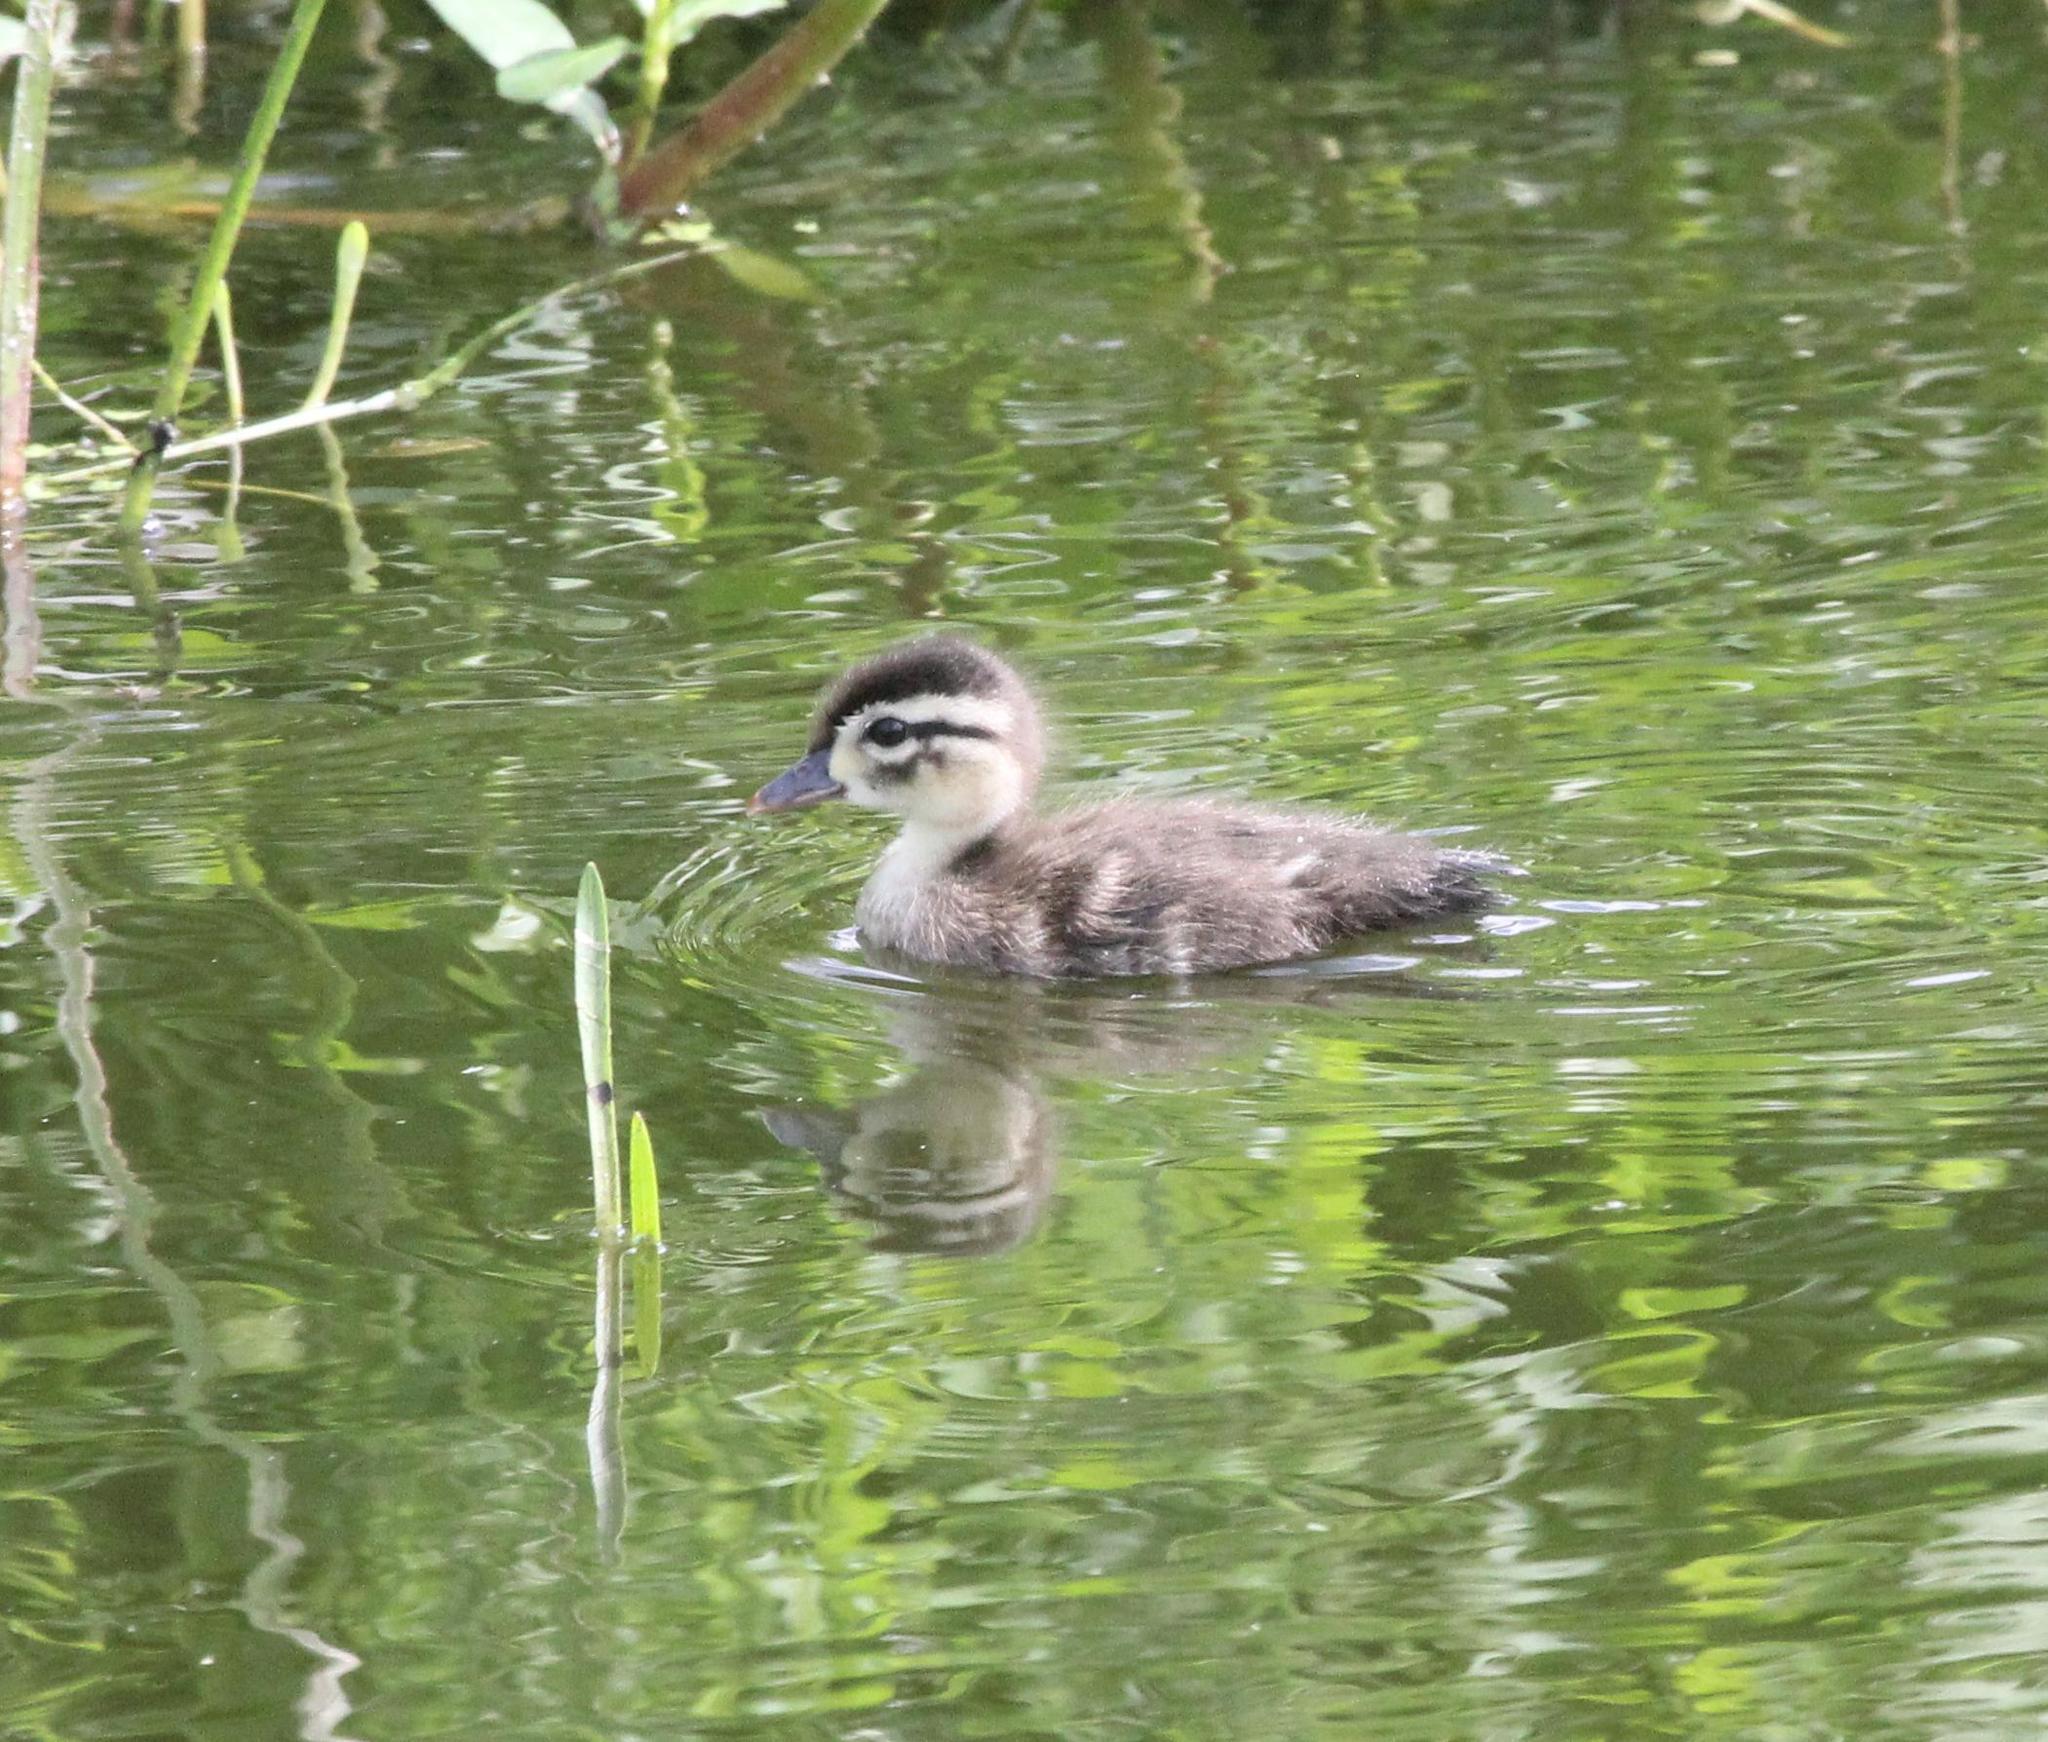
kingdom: Animalia
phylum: Chordata
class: Aves
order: Anseriformes
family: Anatidae
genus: Aix
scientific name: Aix sponsa
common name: Wood duck
